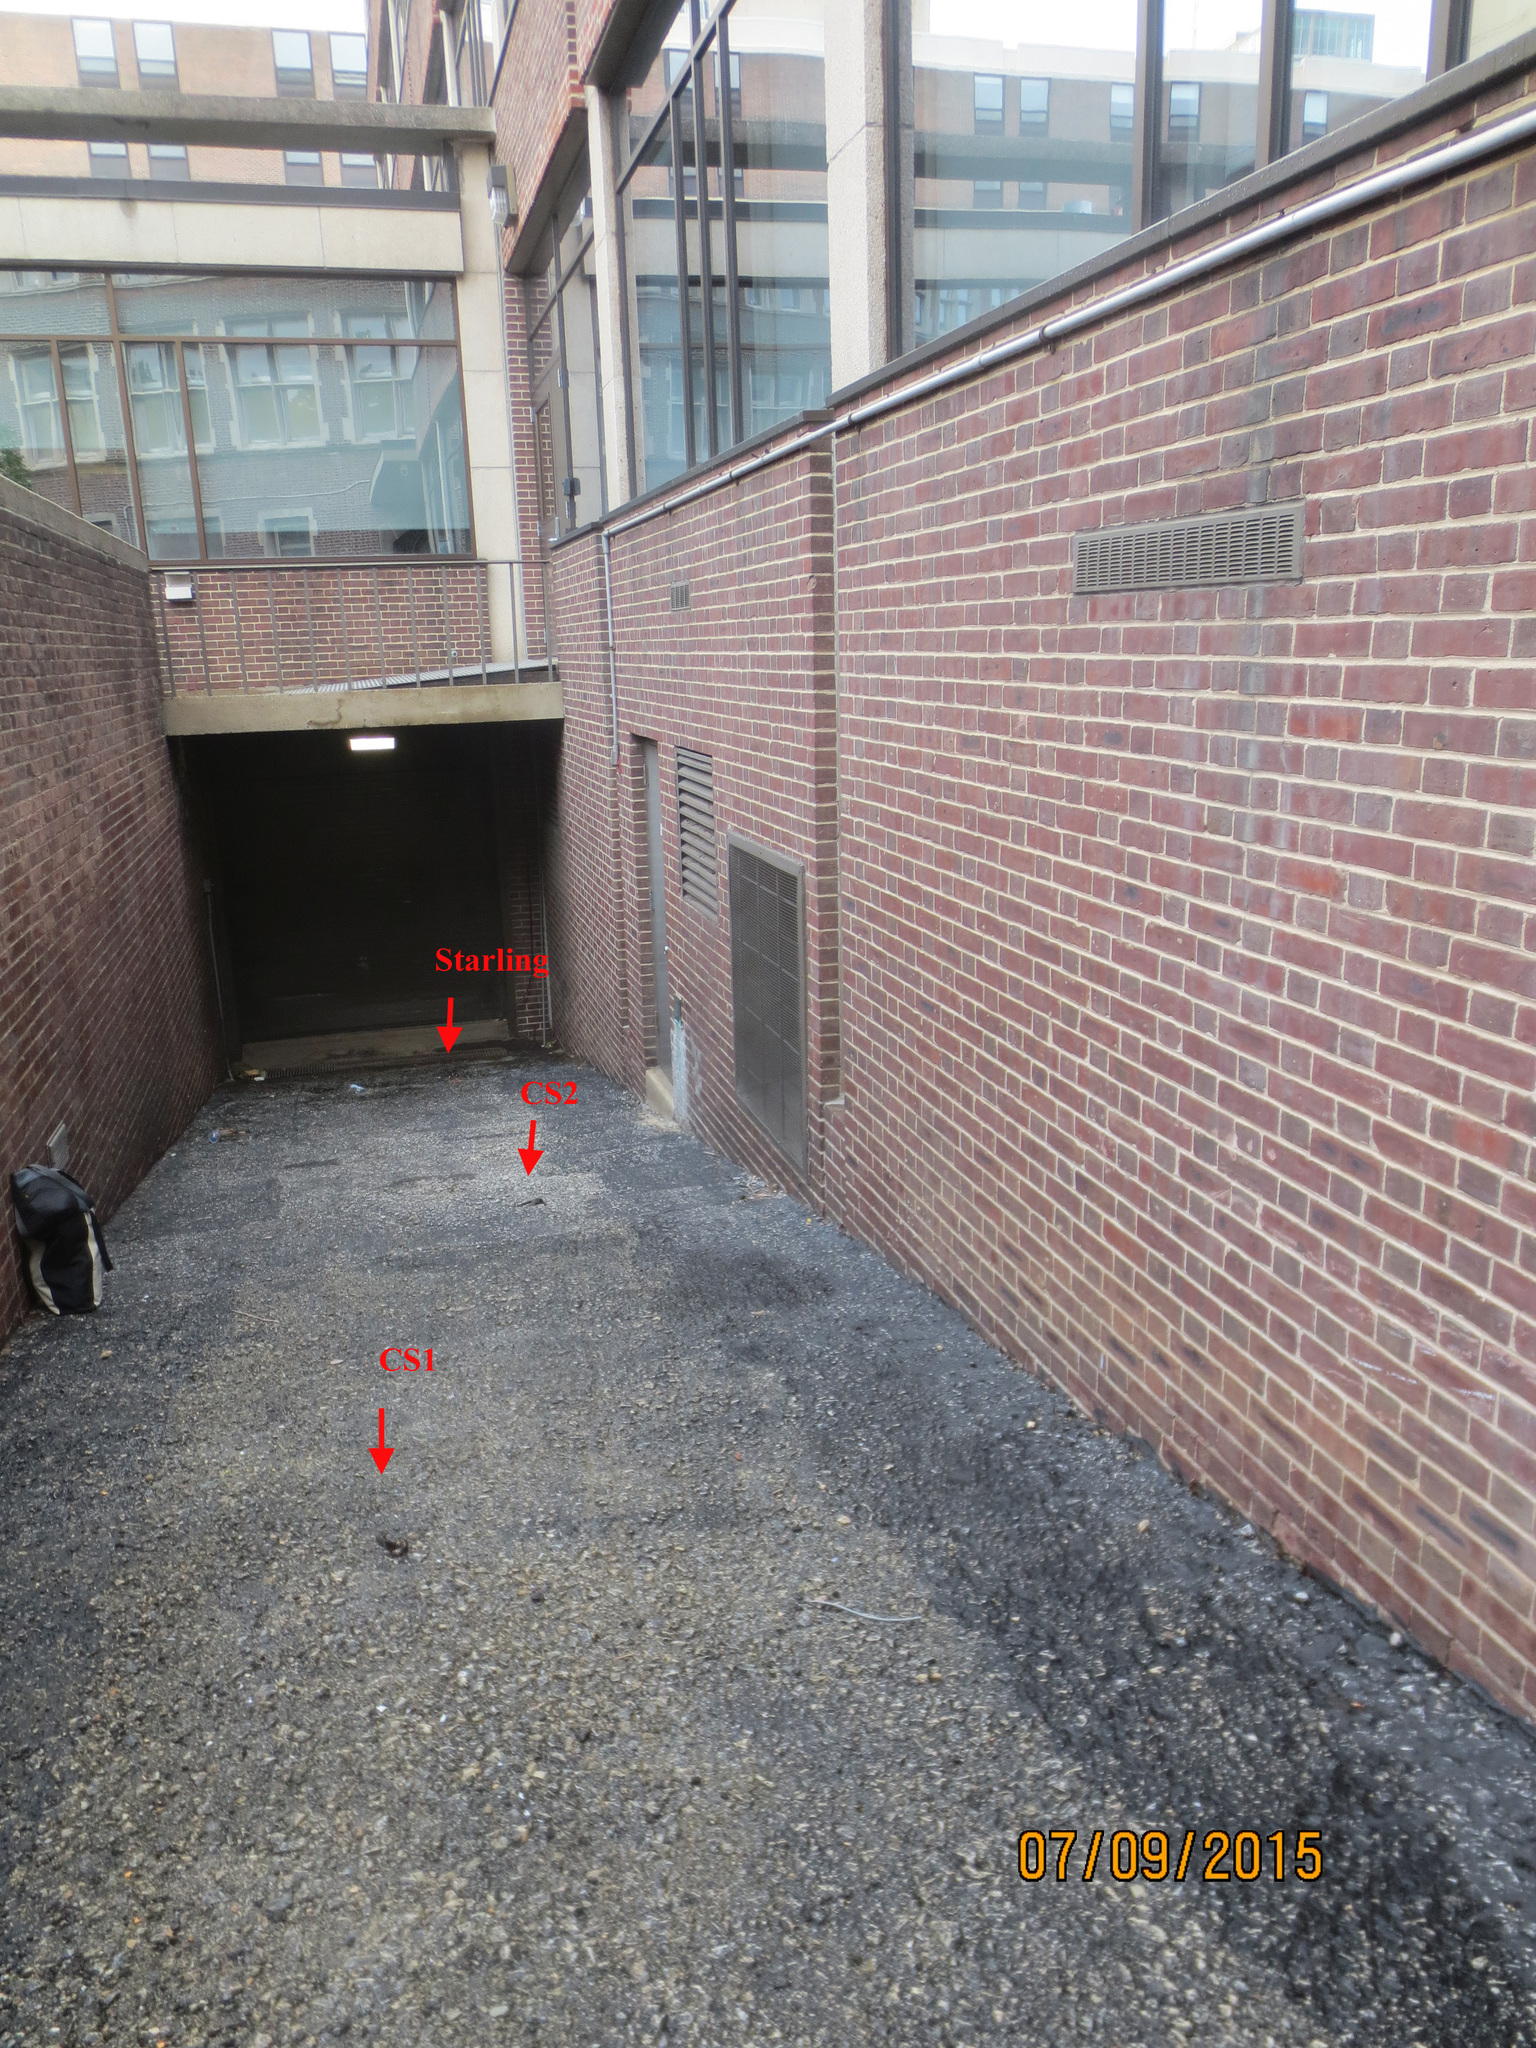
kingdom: Animalia
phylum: Chordata
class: Aves
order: Passeriformes
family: Sturnidae
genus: Sturnus
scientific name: Sturnus vulgaris
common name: Common starling
